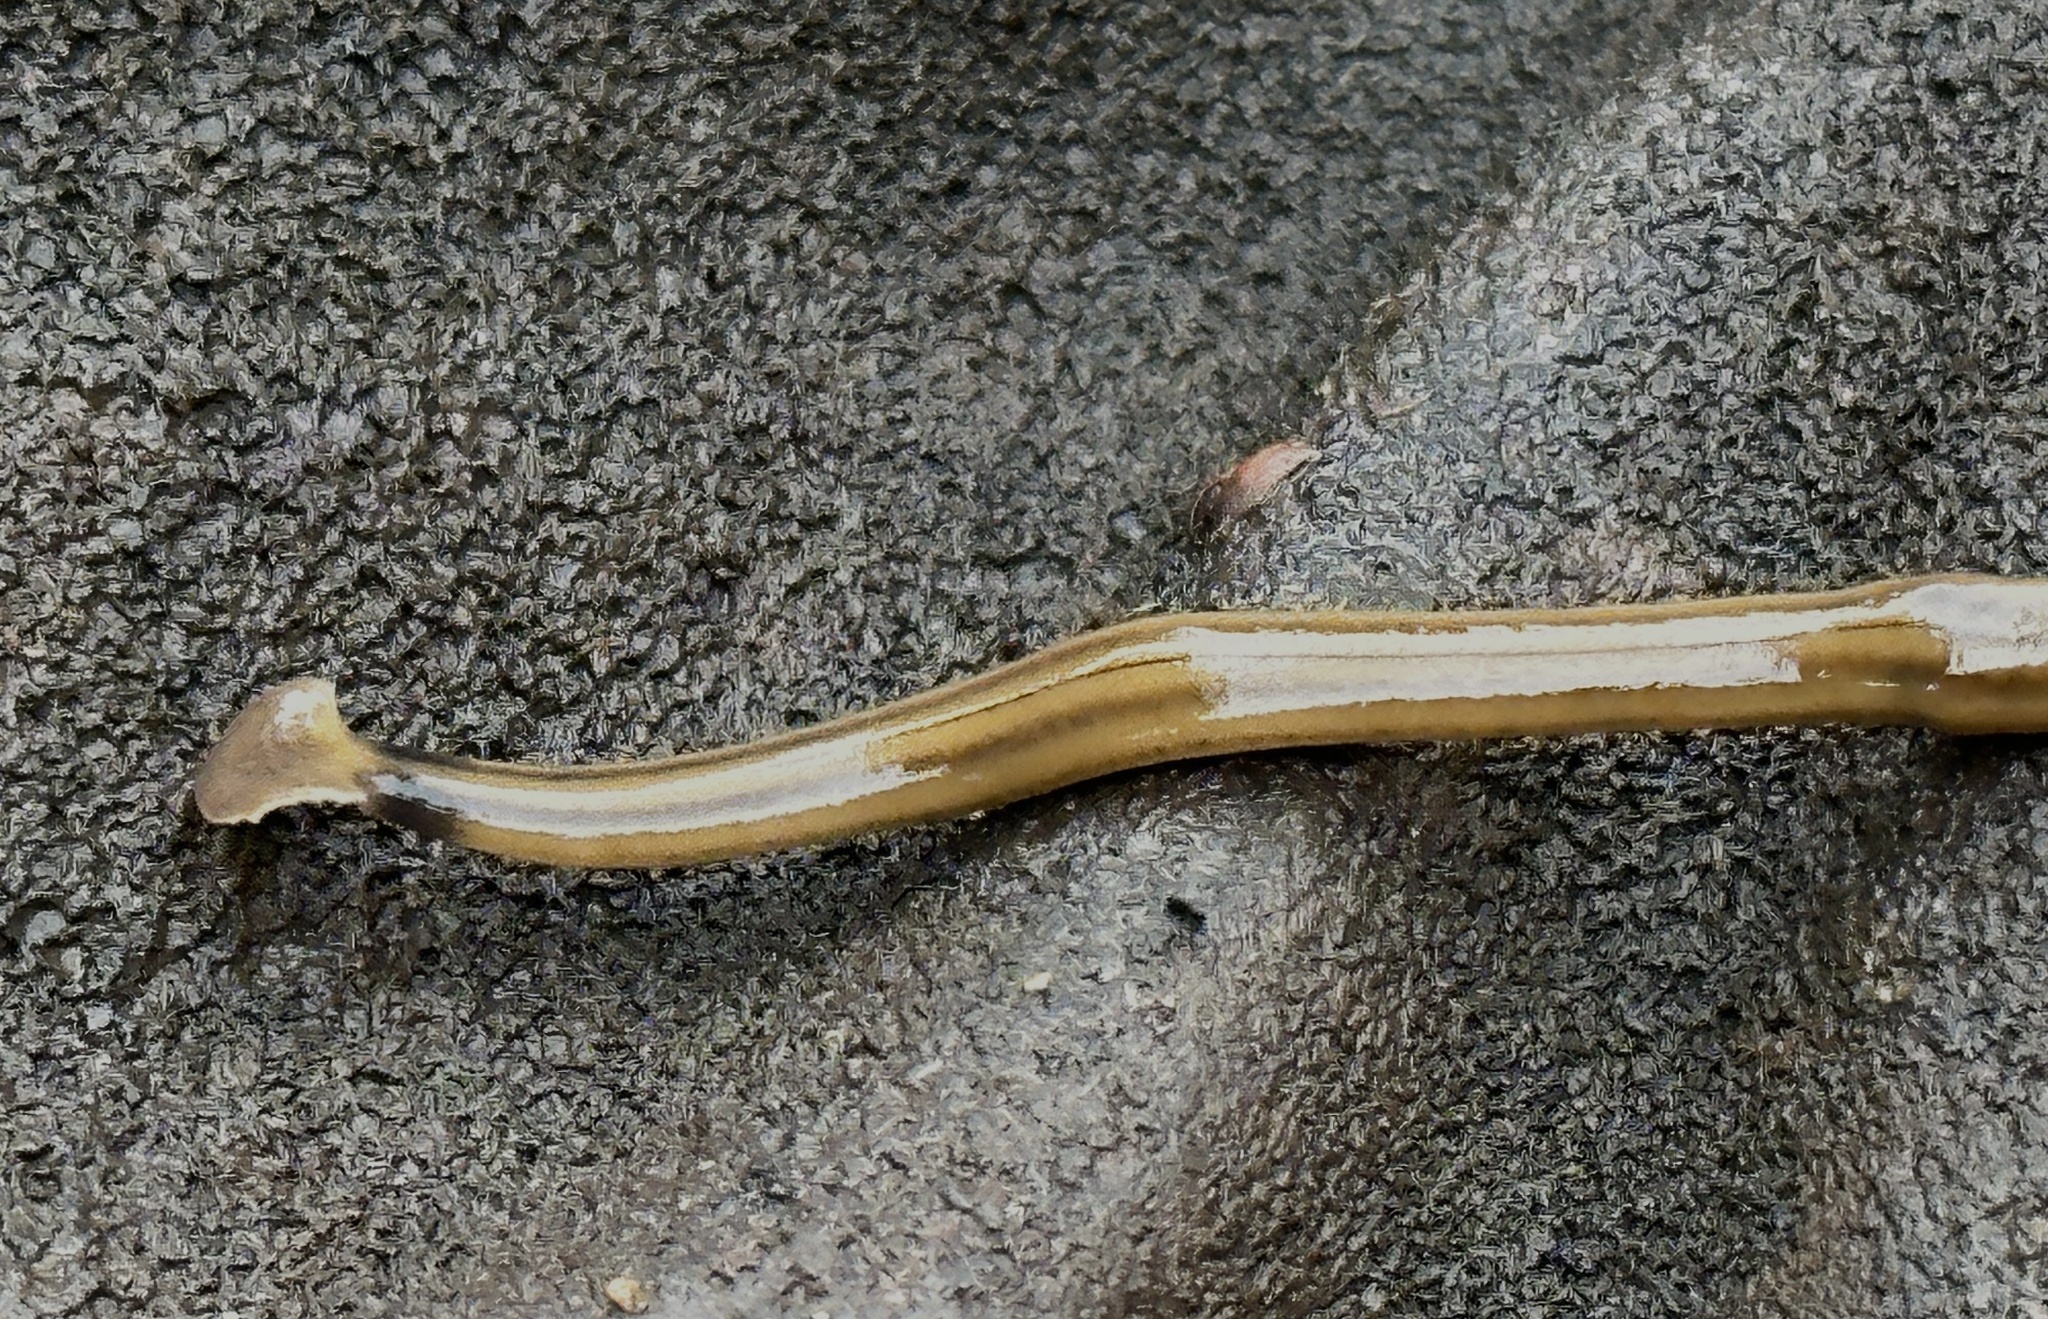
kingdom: Animalia
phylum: Platyhelminthes
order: Tricladida
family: Geoplanidae
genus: Bipalium
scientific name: Bipalium kewense
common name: Hammerhead flatworm
